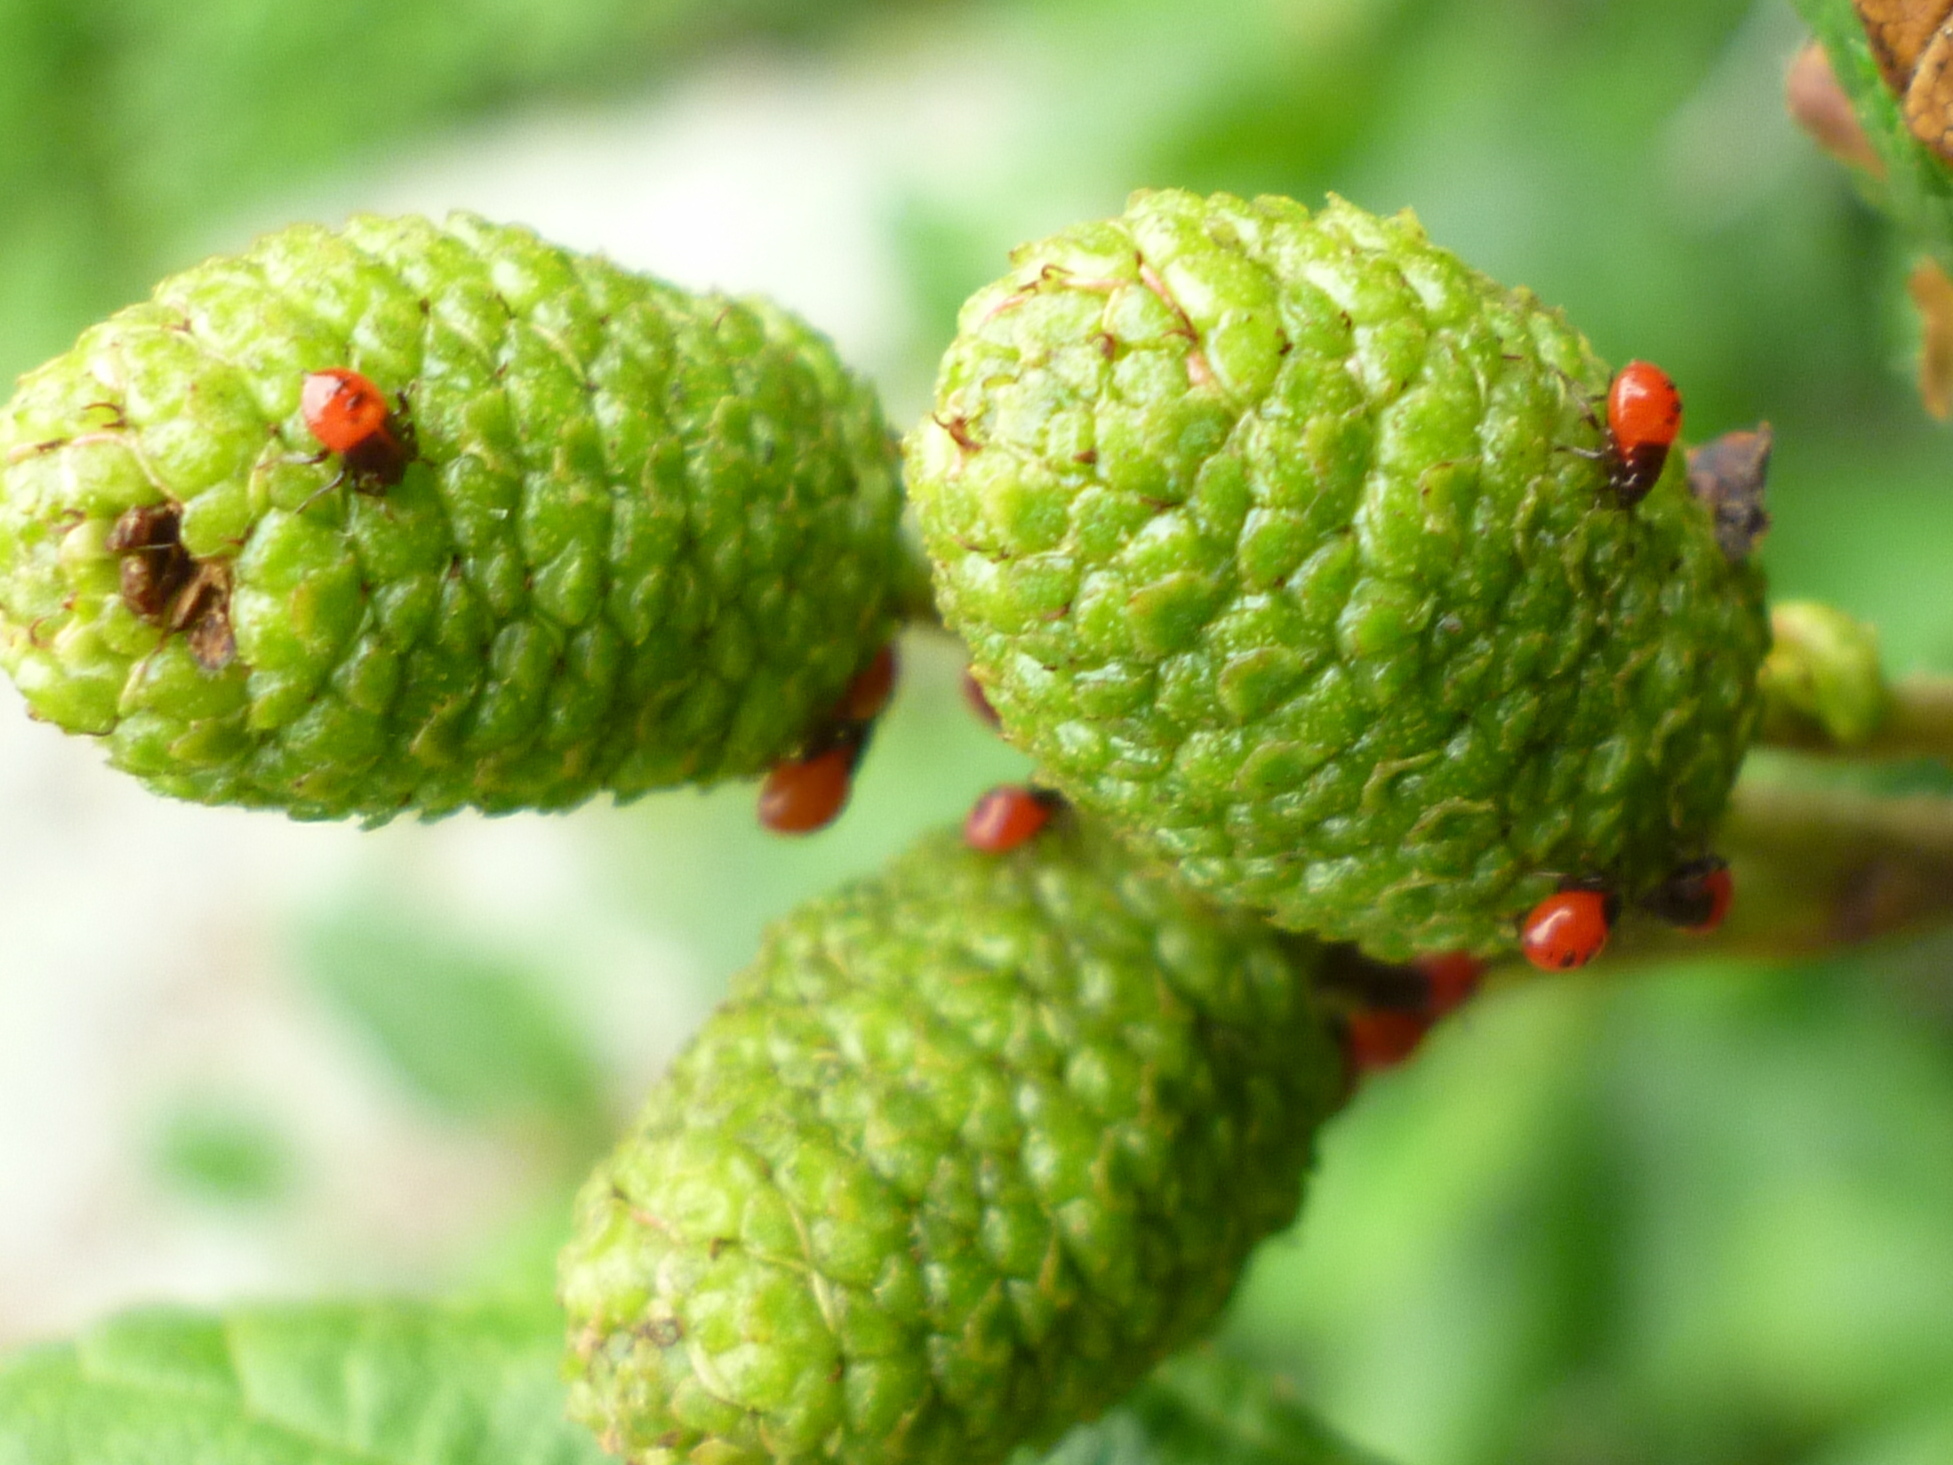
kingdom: Animalia
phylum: Arthropoda
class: Insecta
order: Hemiptera
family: Acanthosomatidae
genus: Elasmucha
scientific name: Elasmucha lateralis
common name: Shield bug
